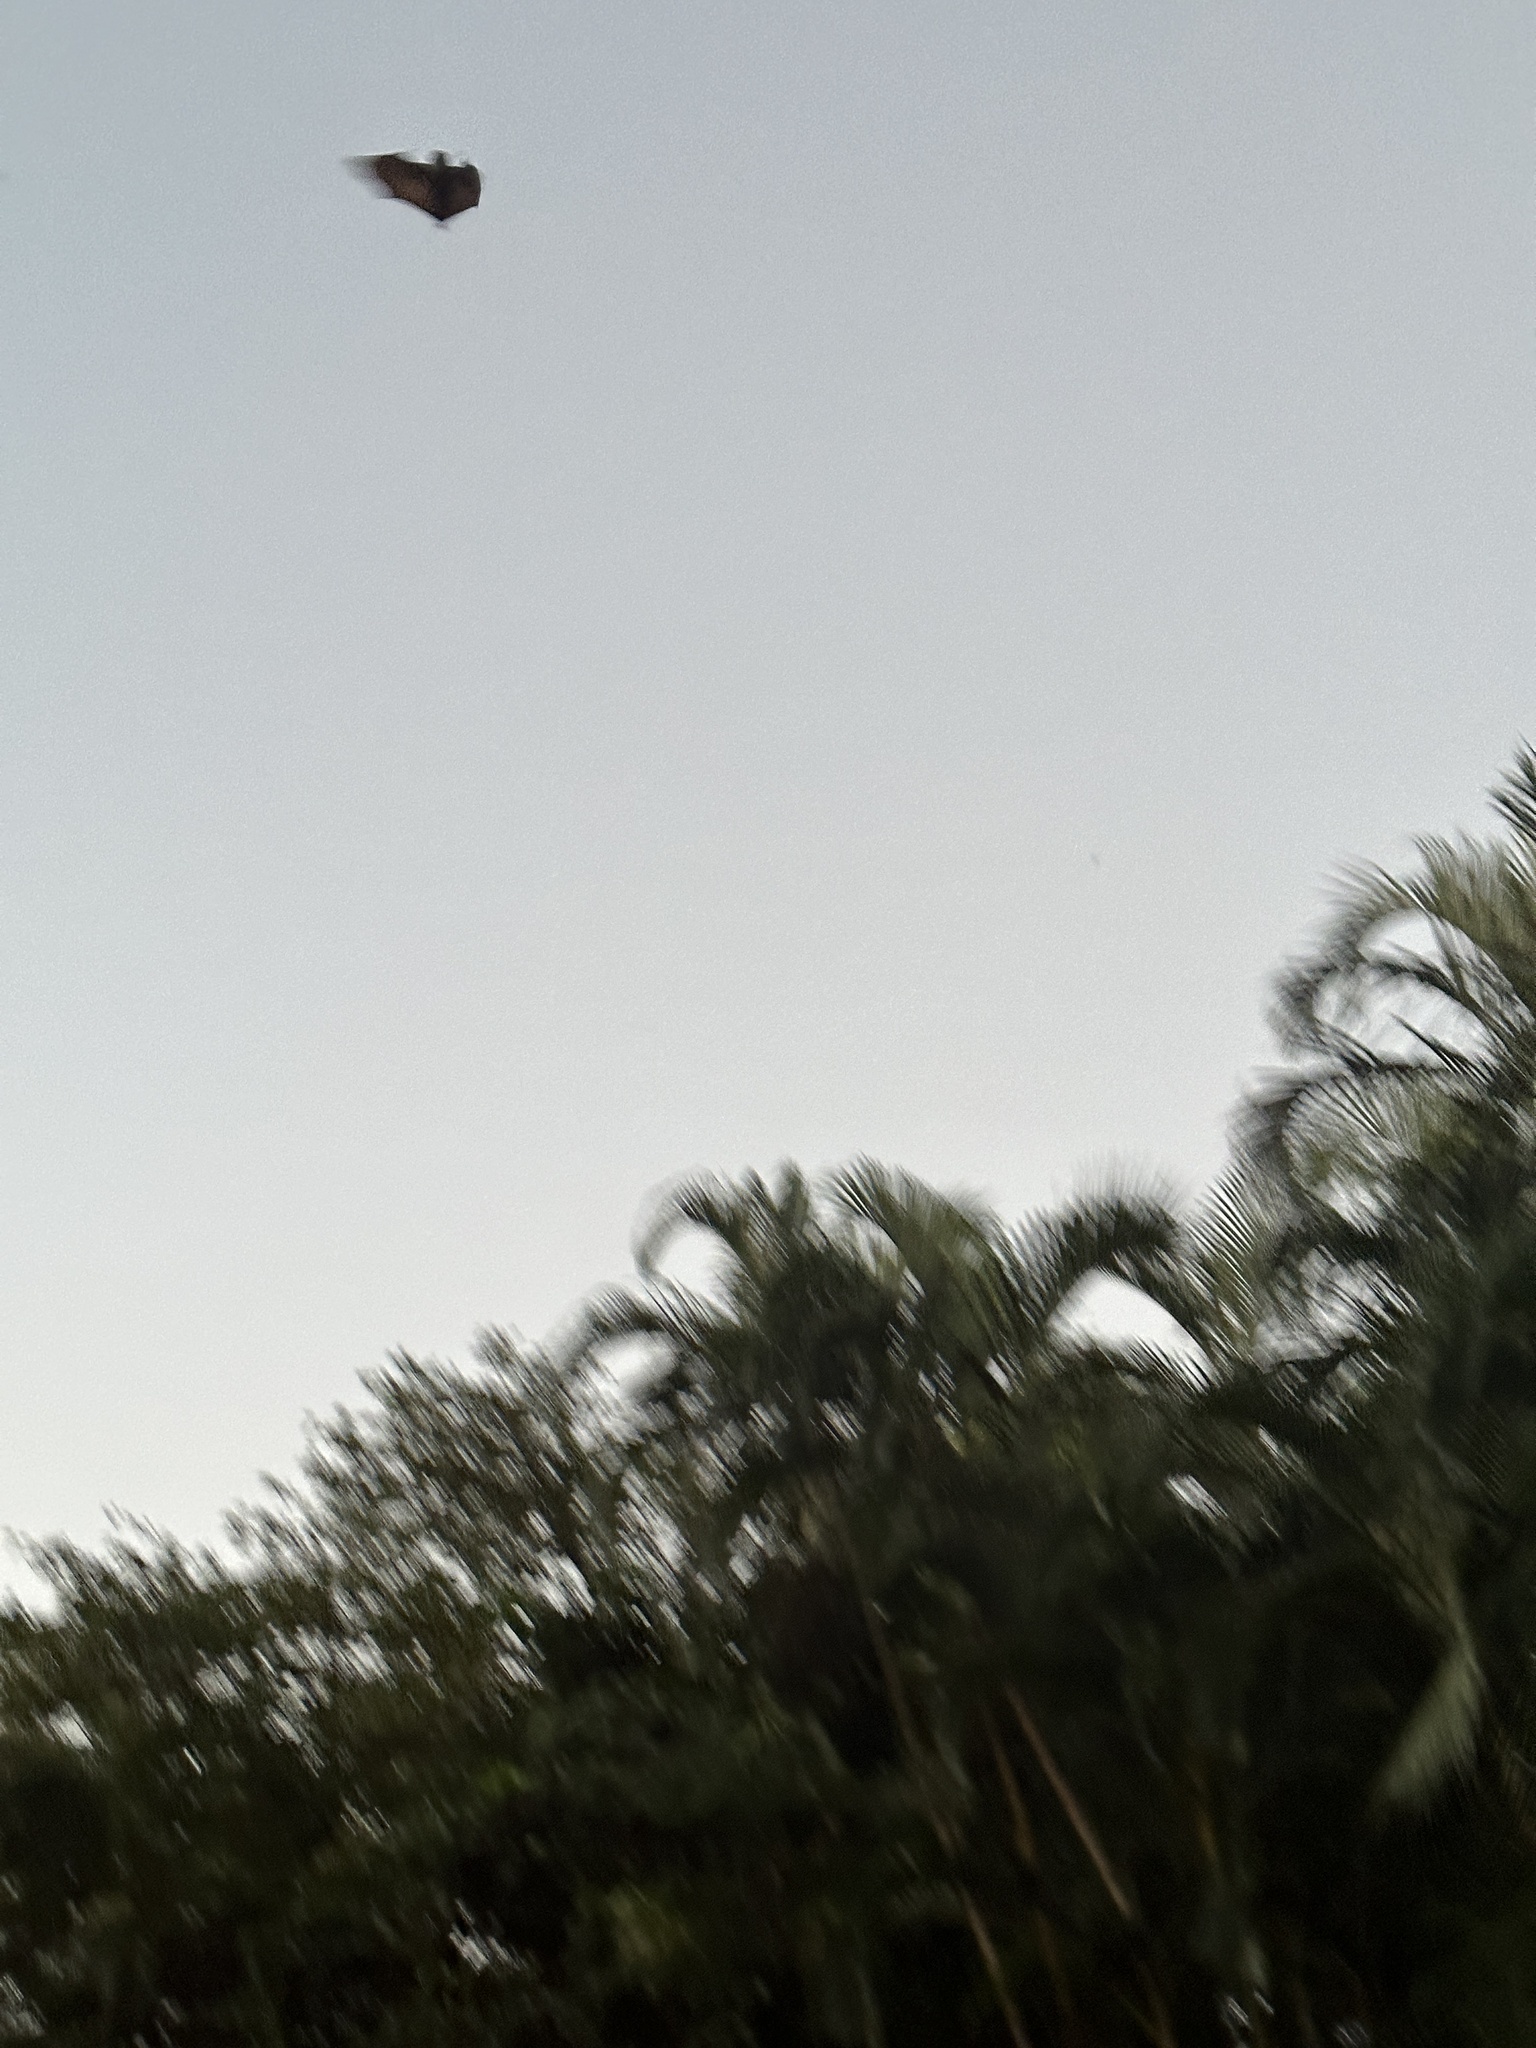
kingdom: Animalia
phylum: Chordata
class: Mammalia
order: Chiroptera
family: Pteropodidae
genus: Pteropus
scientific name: Pteropus pselaphon
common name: Bonin flying fox
